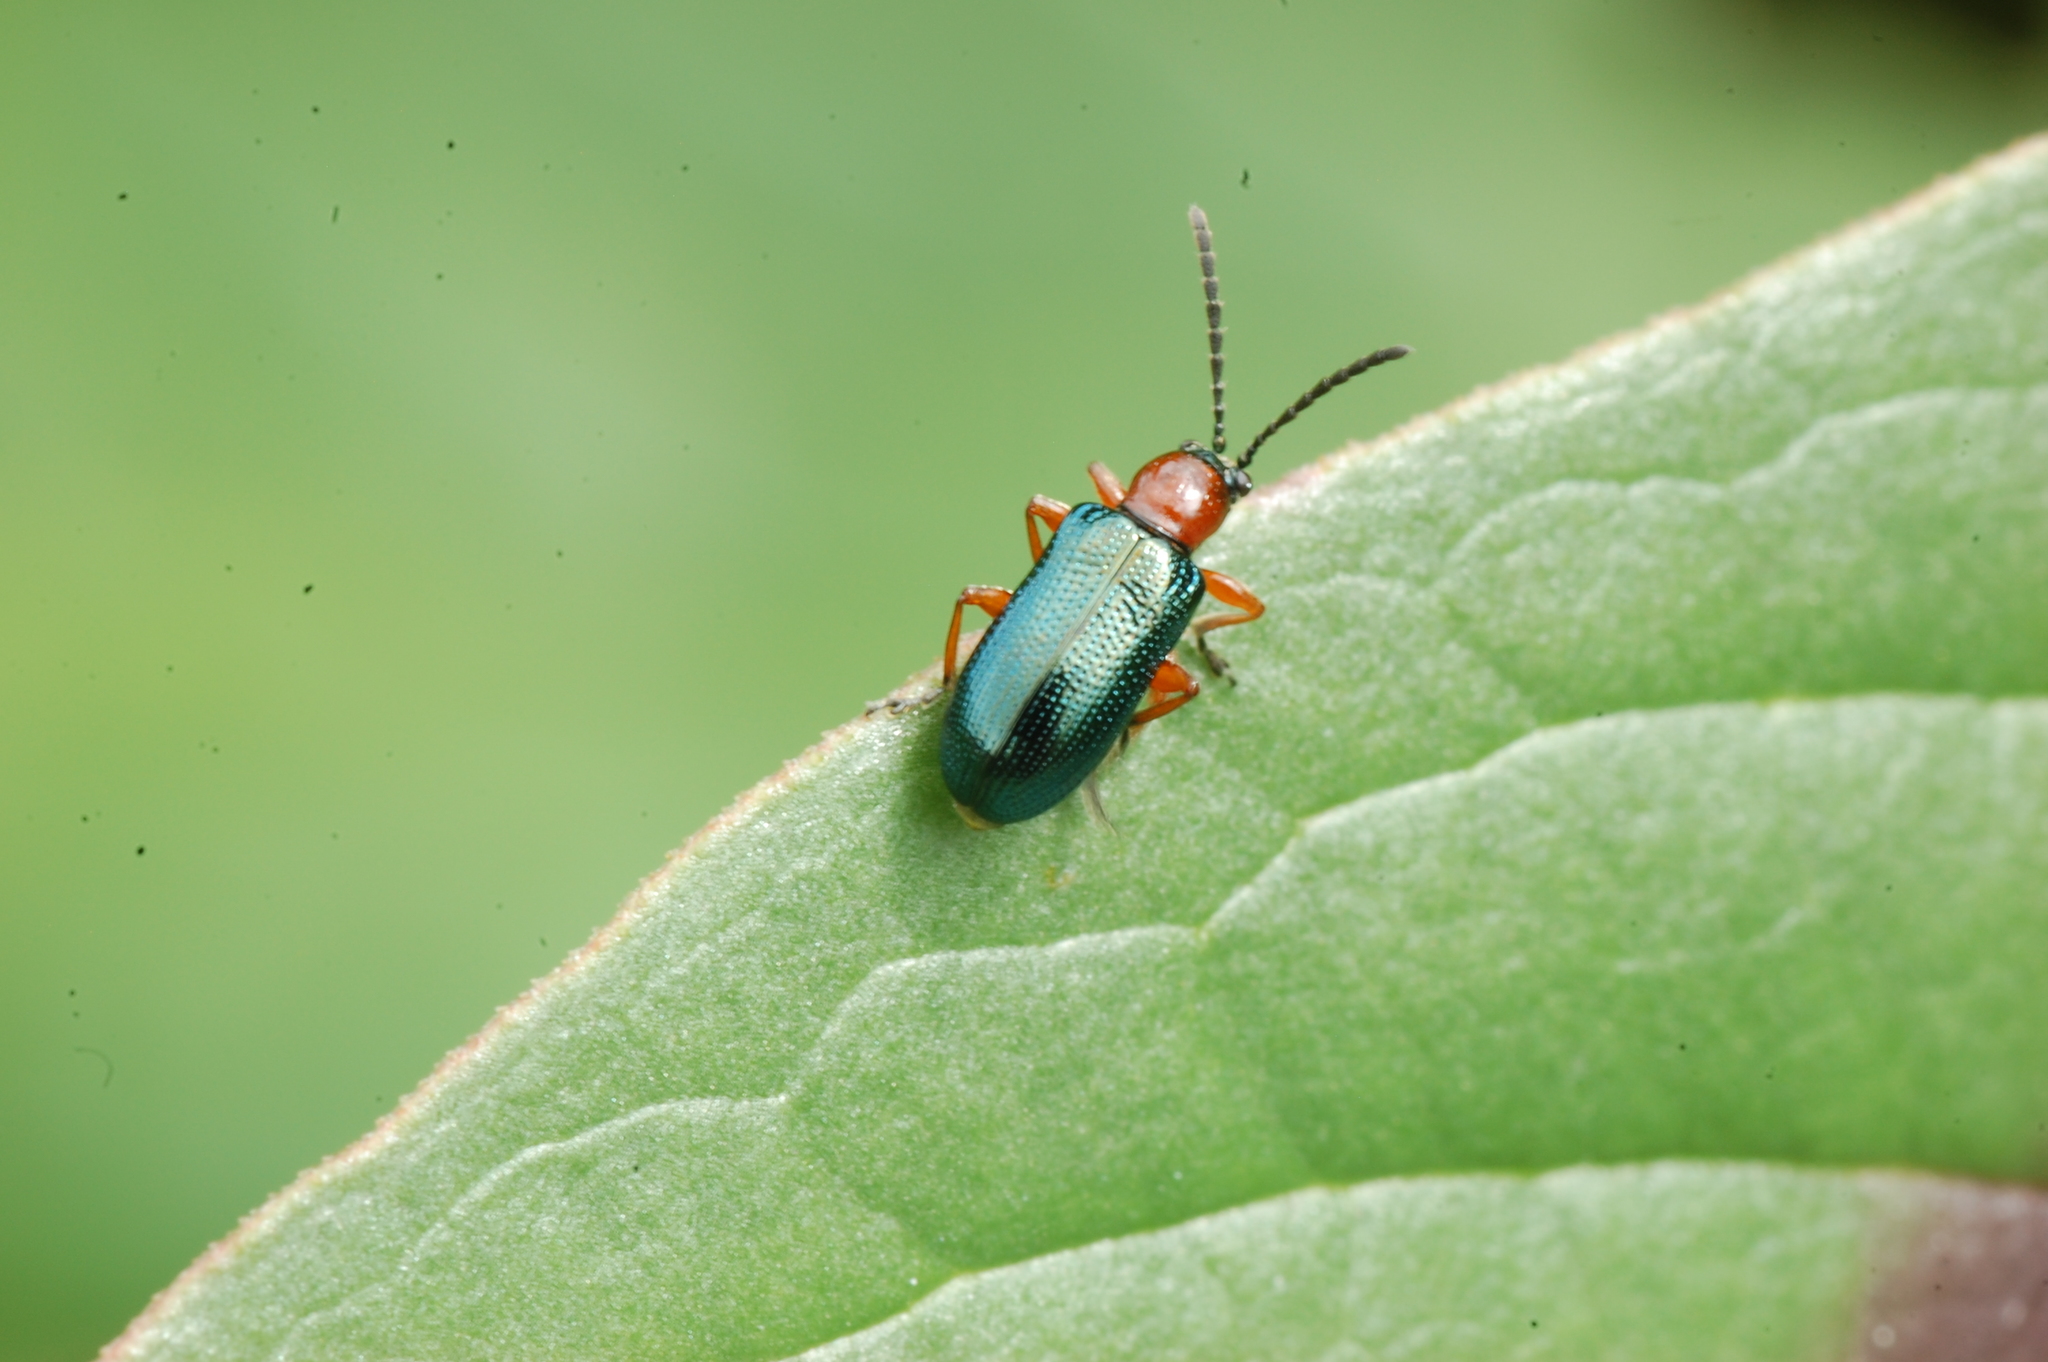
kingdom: Animalia
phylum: Arthropoda
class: Insecta
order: Coleoptera
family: Chrysomelidae
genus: Oulema
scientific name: Oulema melanopus
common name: Cereal leaf beetle
